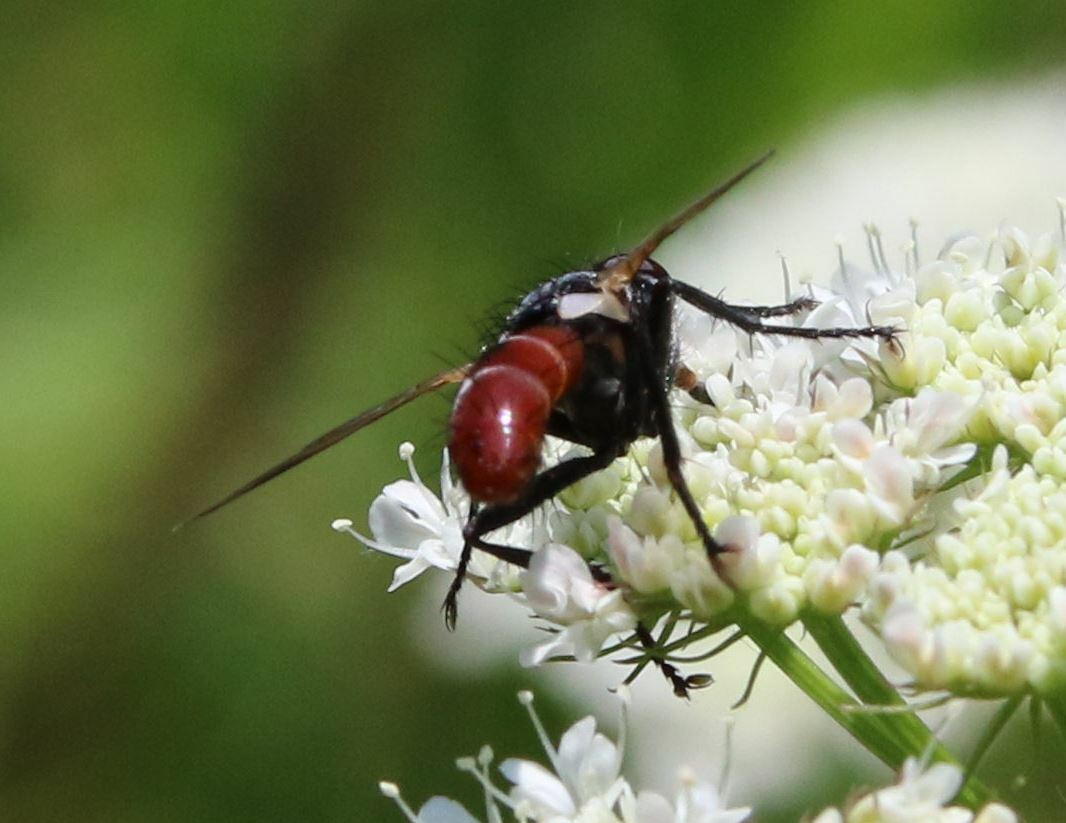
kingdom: Animalia
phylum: Arthropoda
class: Insecta
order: Diptera
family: Tachinidae
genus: Cylindromyia
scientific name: Cylindromyia bicolor
